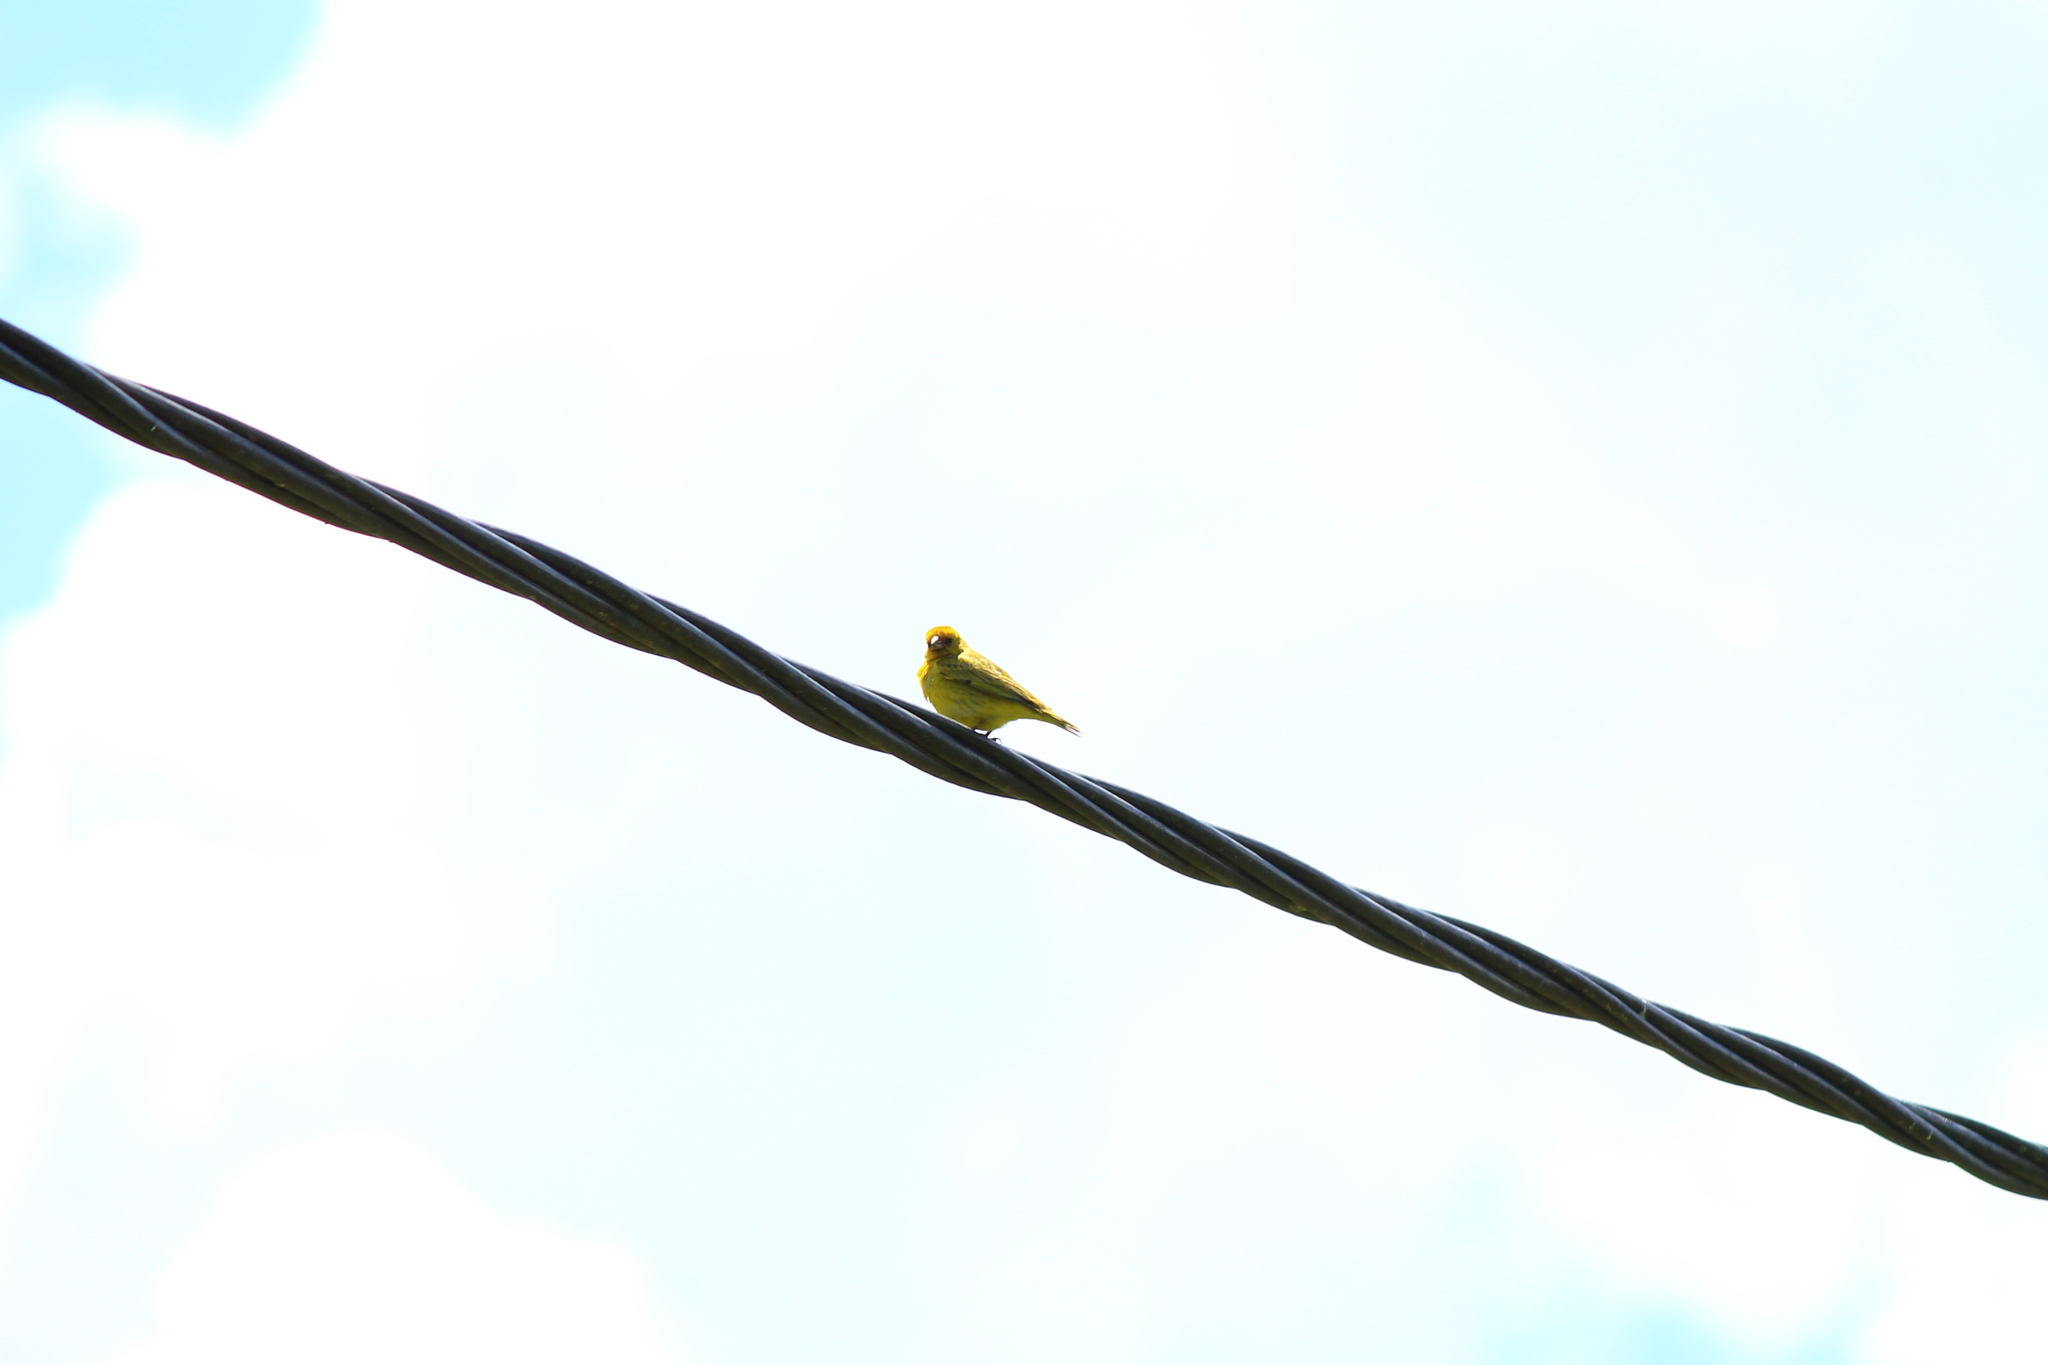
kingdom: Animalia
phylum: Chordata
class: Aves
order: Passeriformes
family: Thraupidae
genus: Sicalis
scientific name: Sicalis flaveola
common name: Saffron finch
